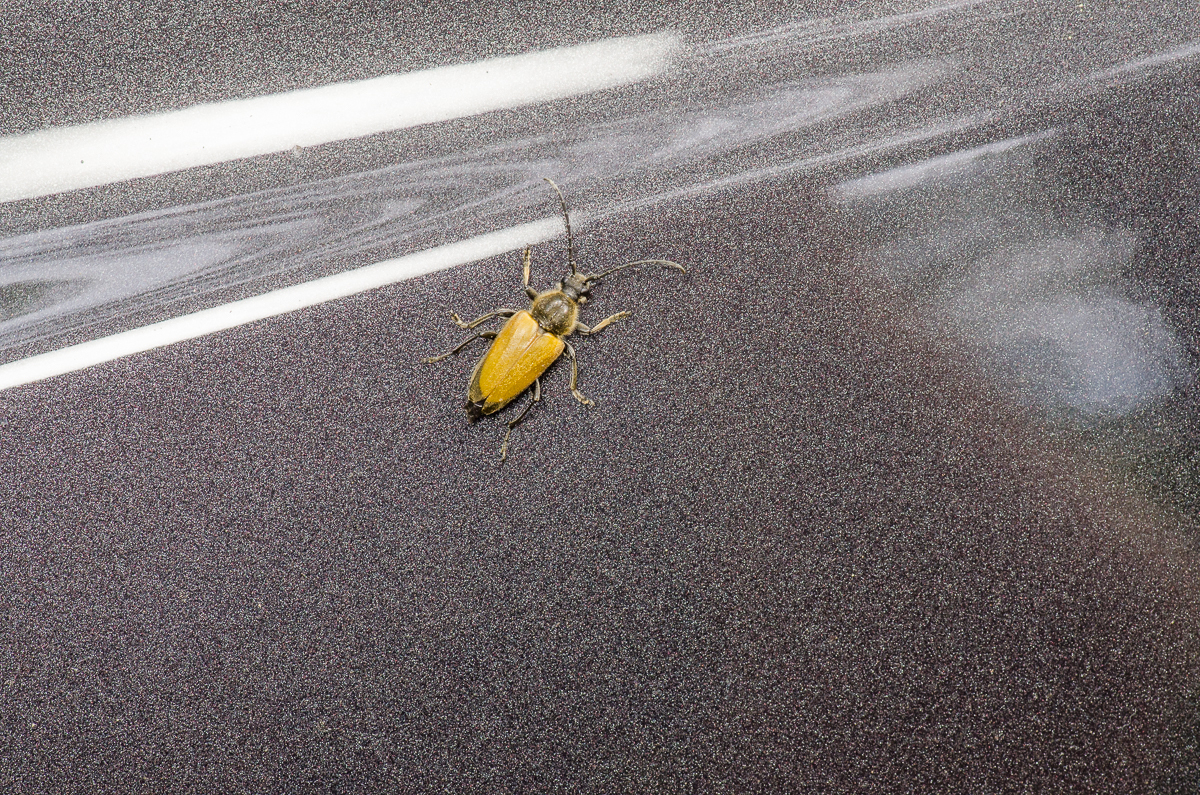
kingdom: Animalia
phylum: Arthropoda
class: Insecta
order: Coleoptera
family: Cerambycidae
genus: Trigonarthris
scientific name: Trigonarthris proxima
